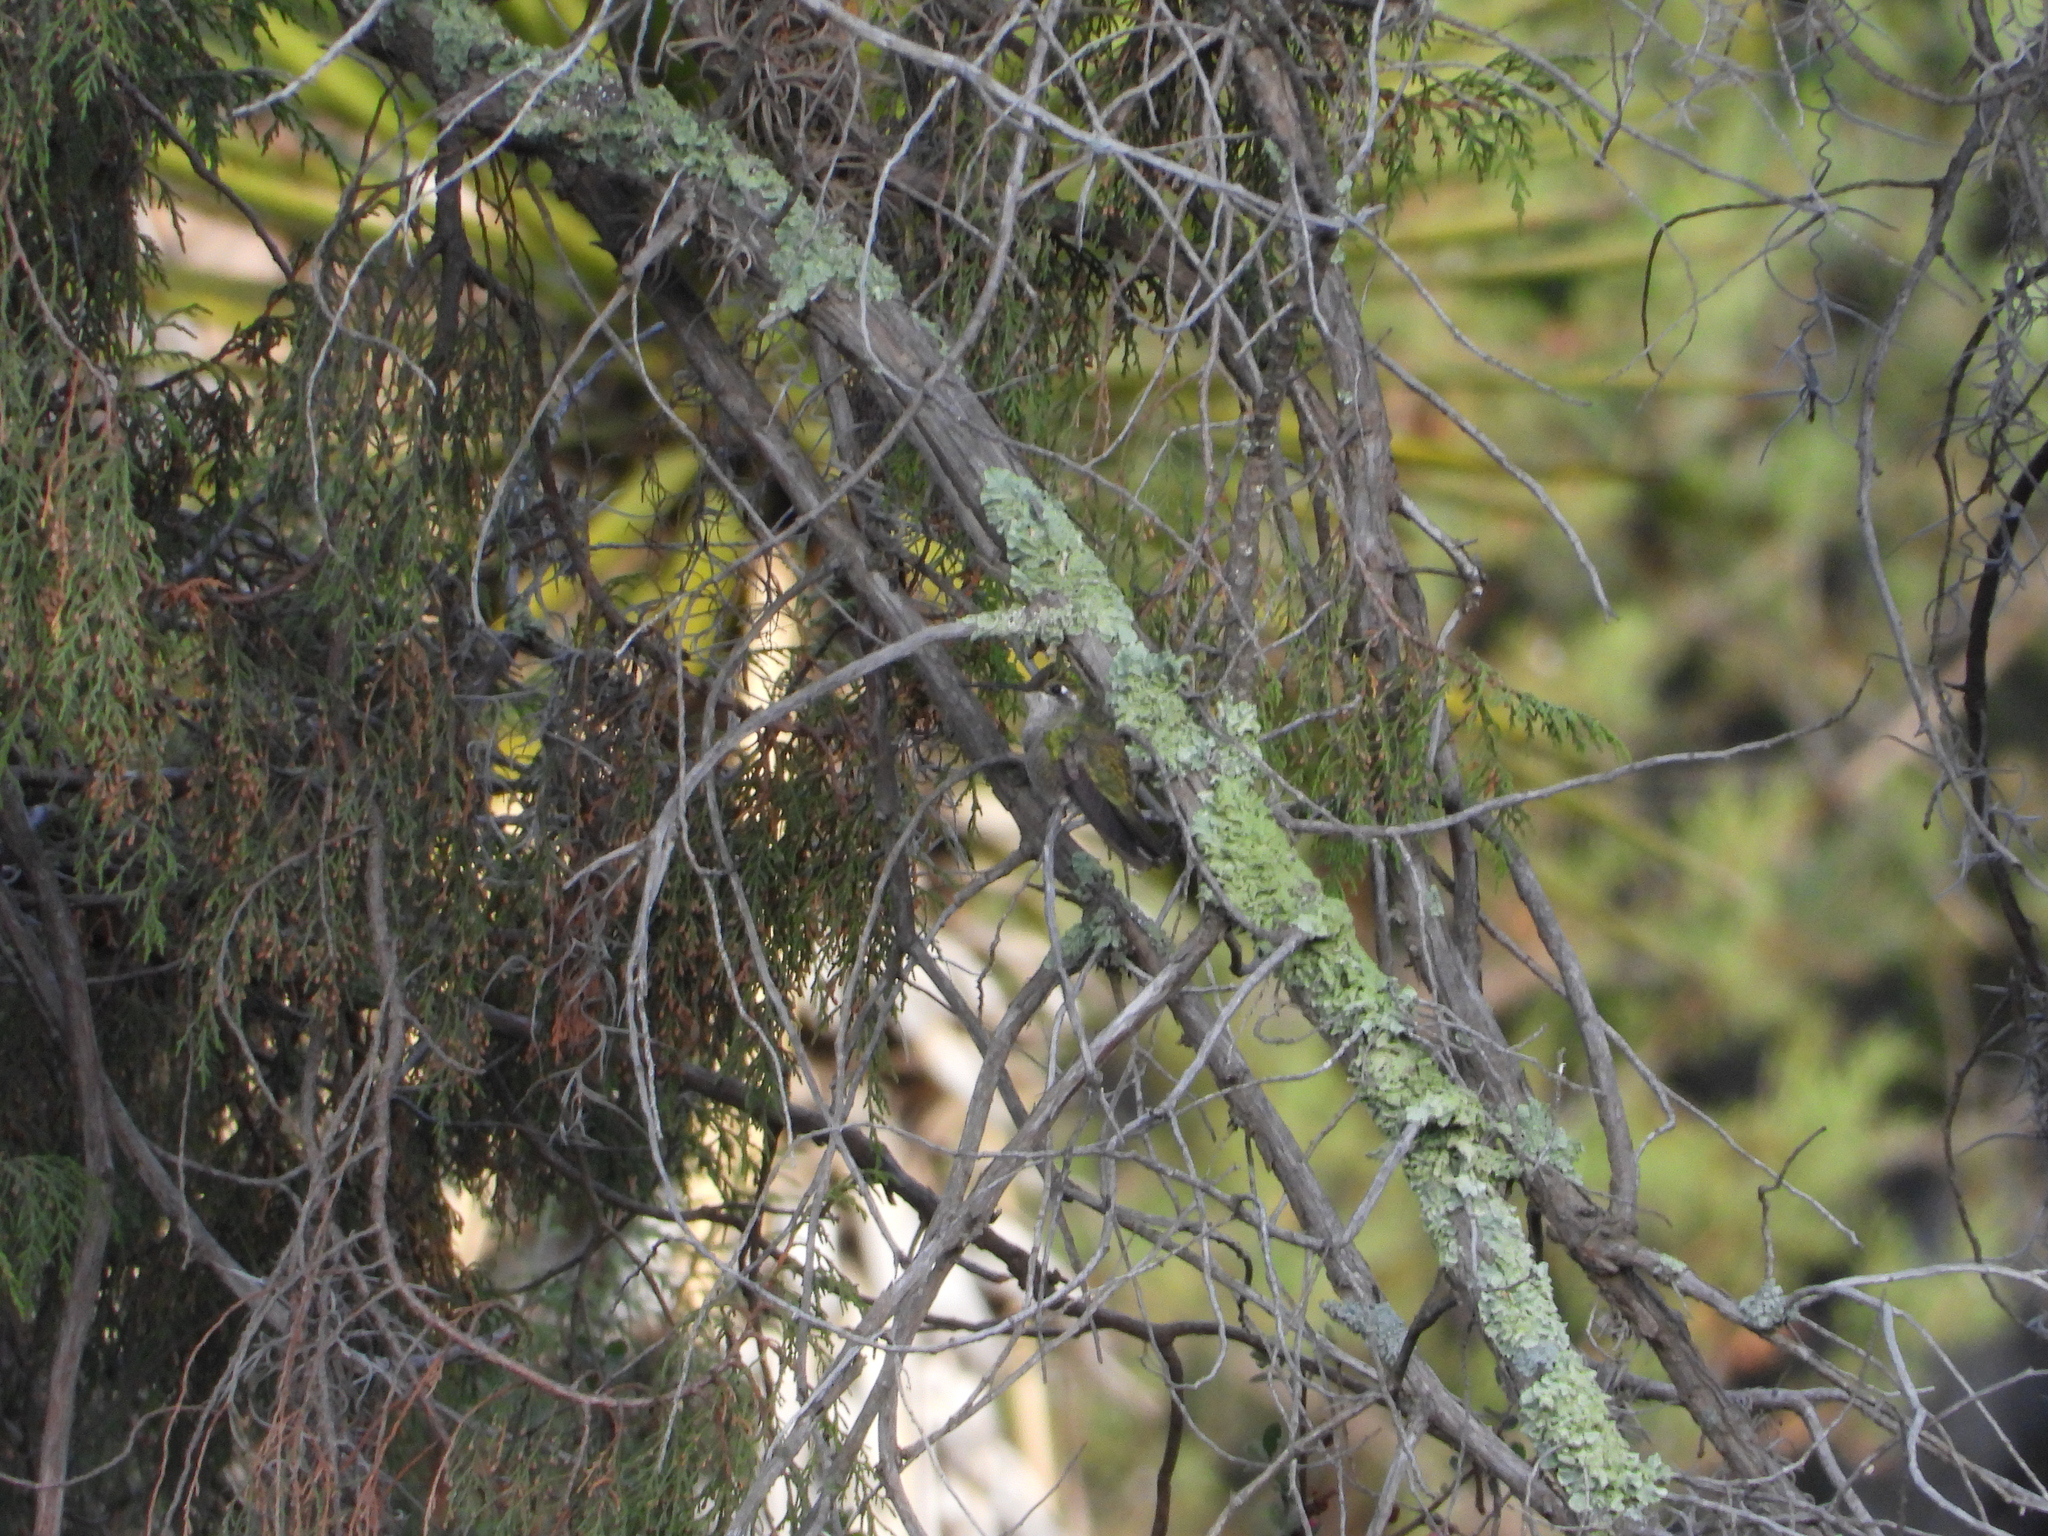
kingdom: Animalia
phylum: Chordata
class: Aves
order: Apodiformes
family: Trochilidae
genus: Eugenes
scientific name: Eugenes fulgens
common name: Magnificent hummingbird
